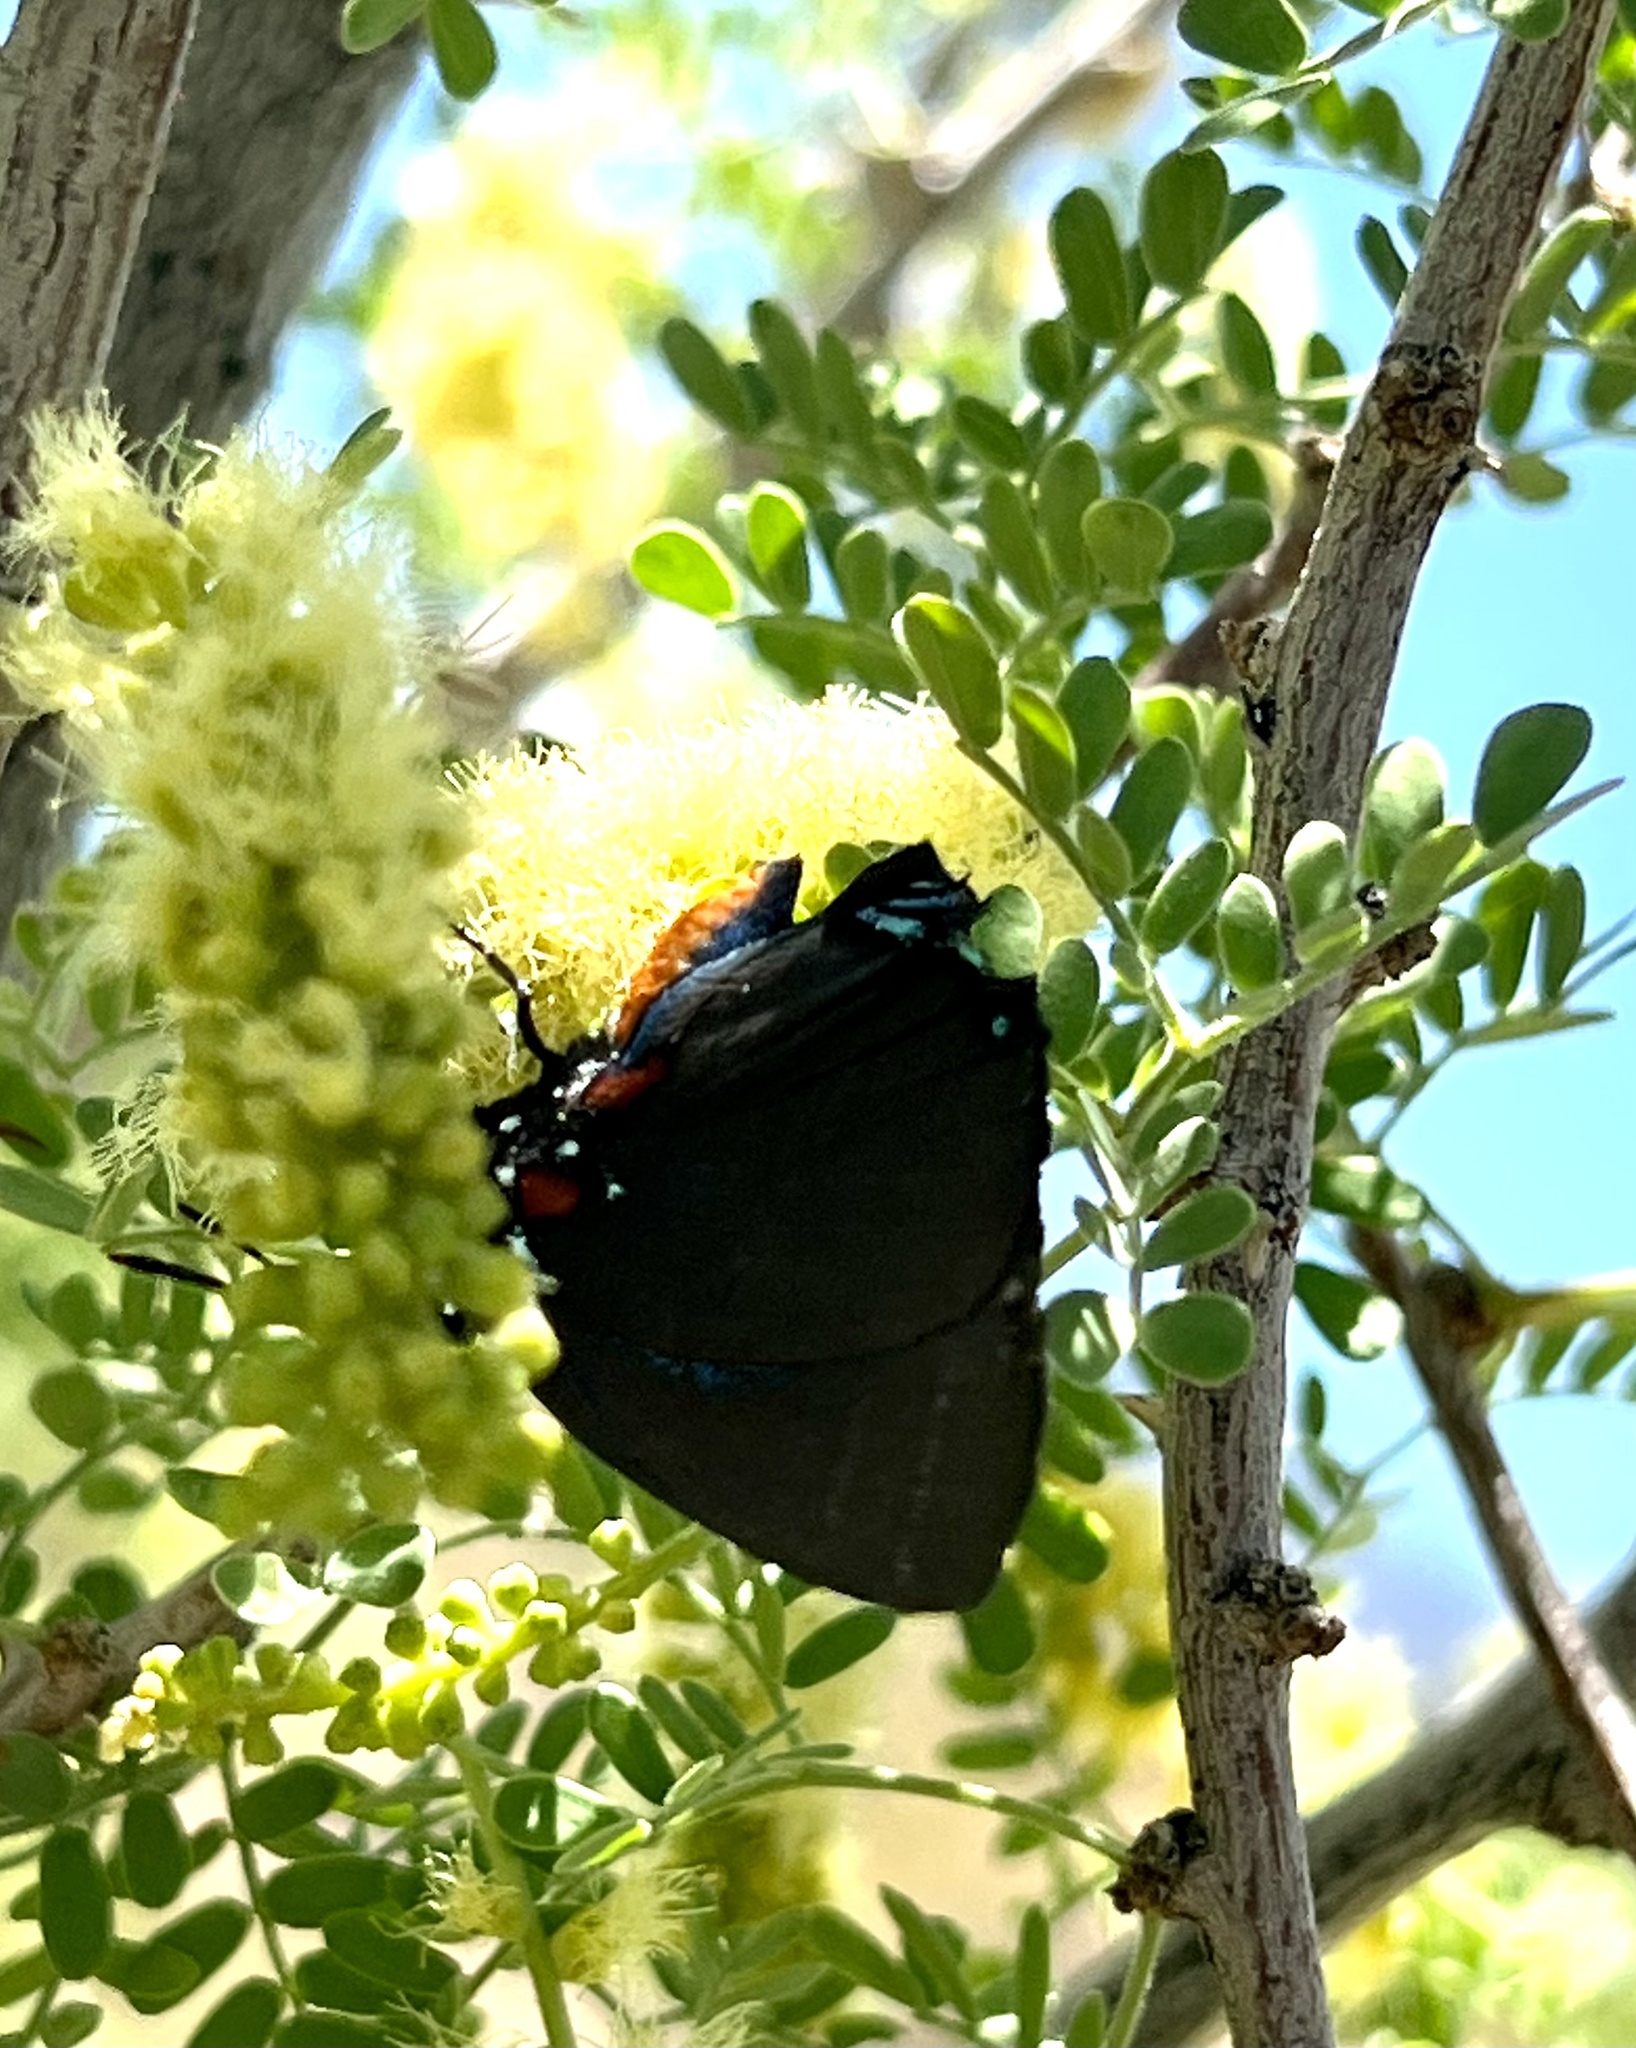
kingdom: Animalia
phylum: Arthropoda
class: Insecta
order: Lepidoptera
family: Lycaenidae
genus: Atlides
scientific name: Atlides halesus
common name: Great purple hairstreak
